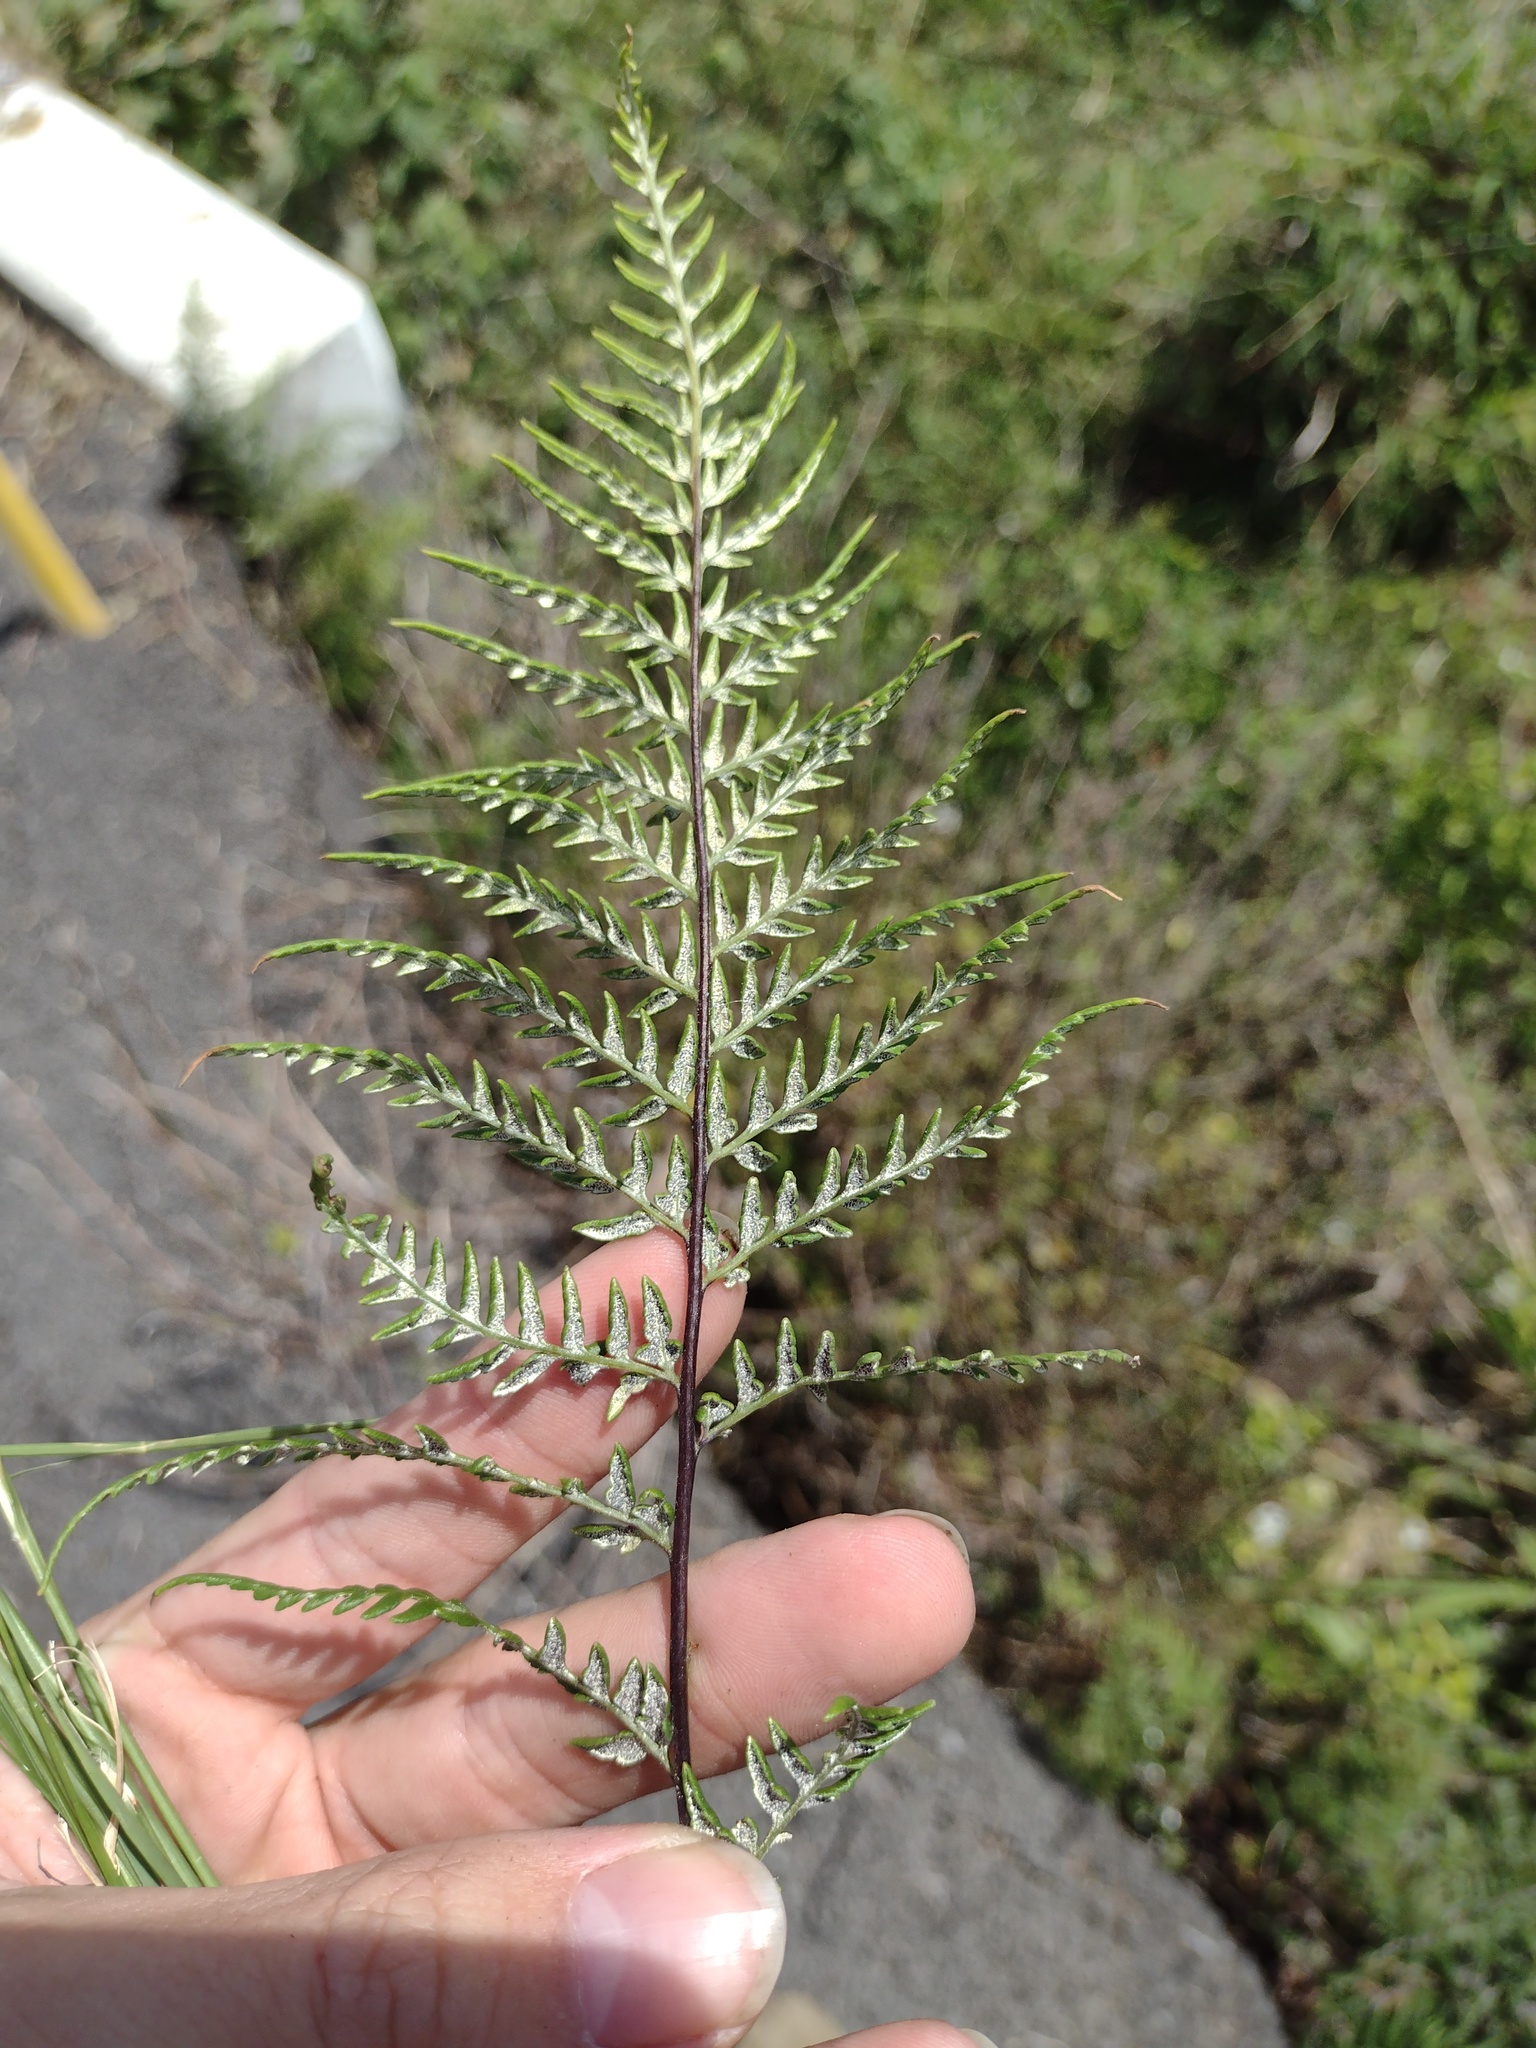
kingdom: Plantae
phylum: Tracheophyta
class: Polypodiopsida
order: Polypodiales
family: Pteridaceae
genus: Pityrogramma
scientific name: Pityrogramma calomelanos
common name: Dixie silverback fern
